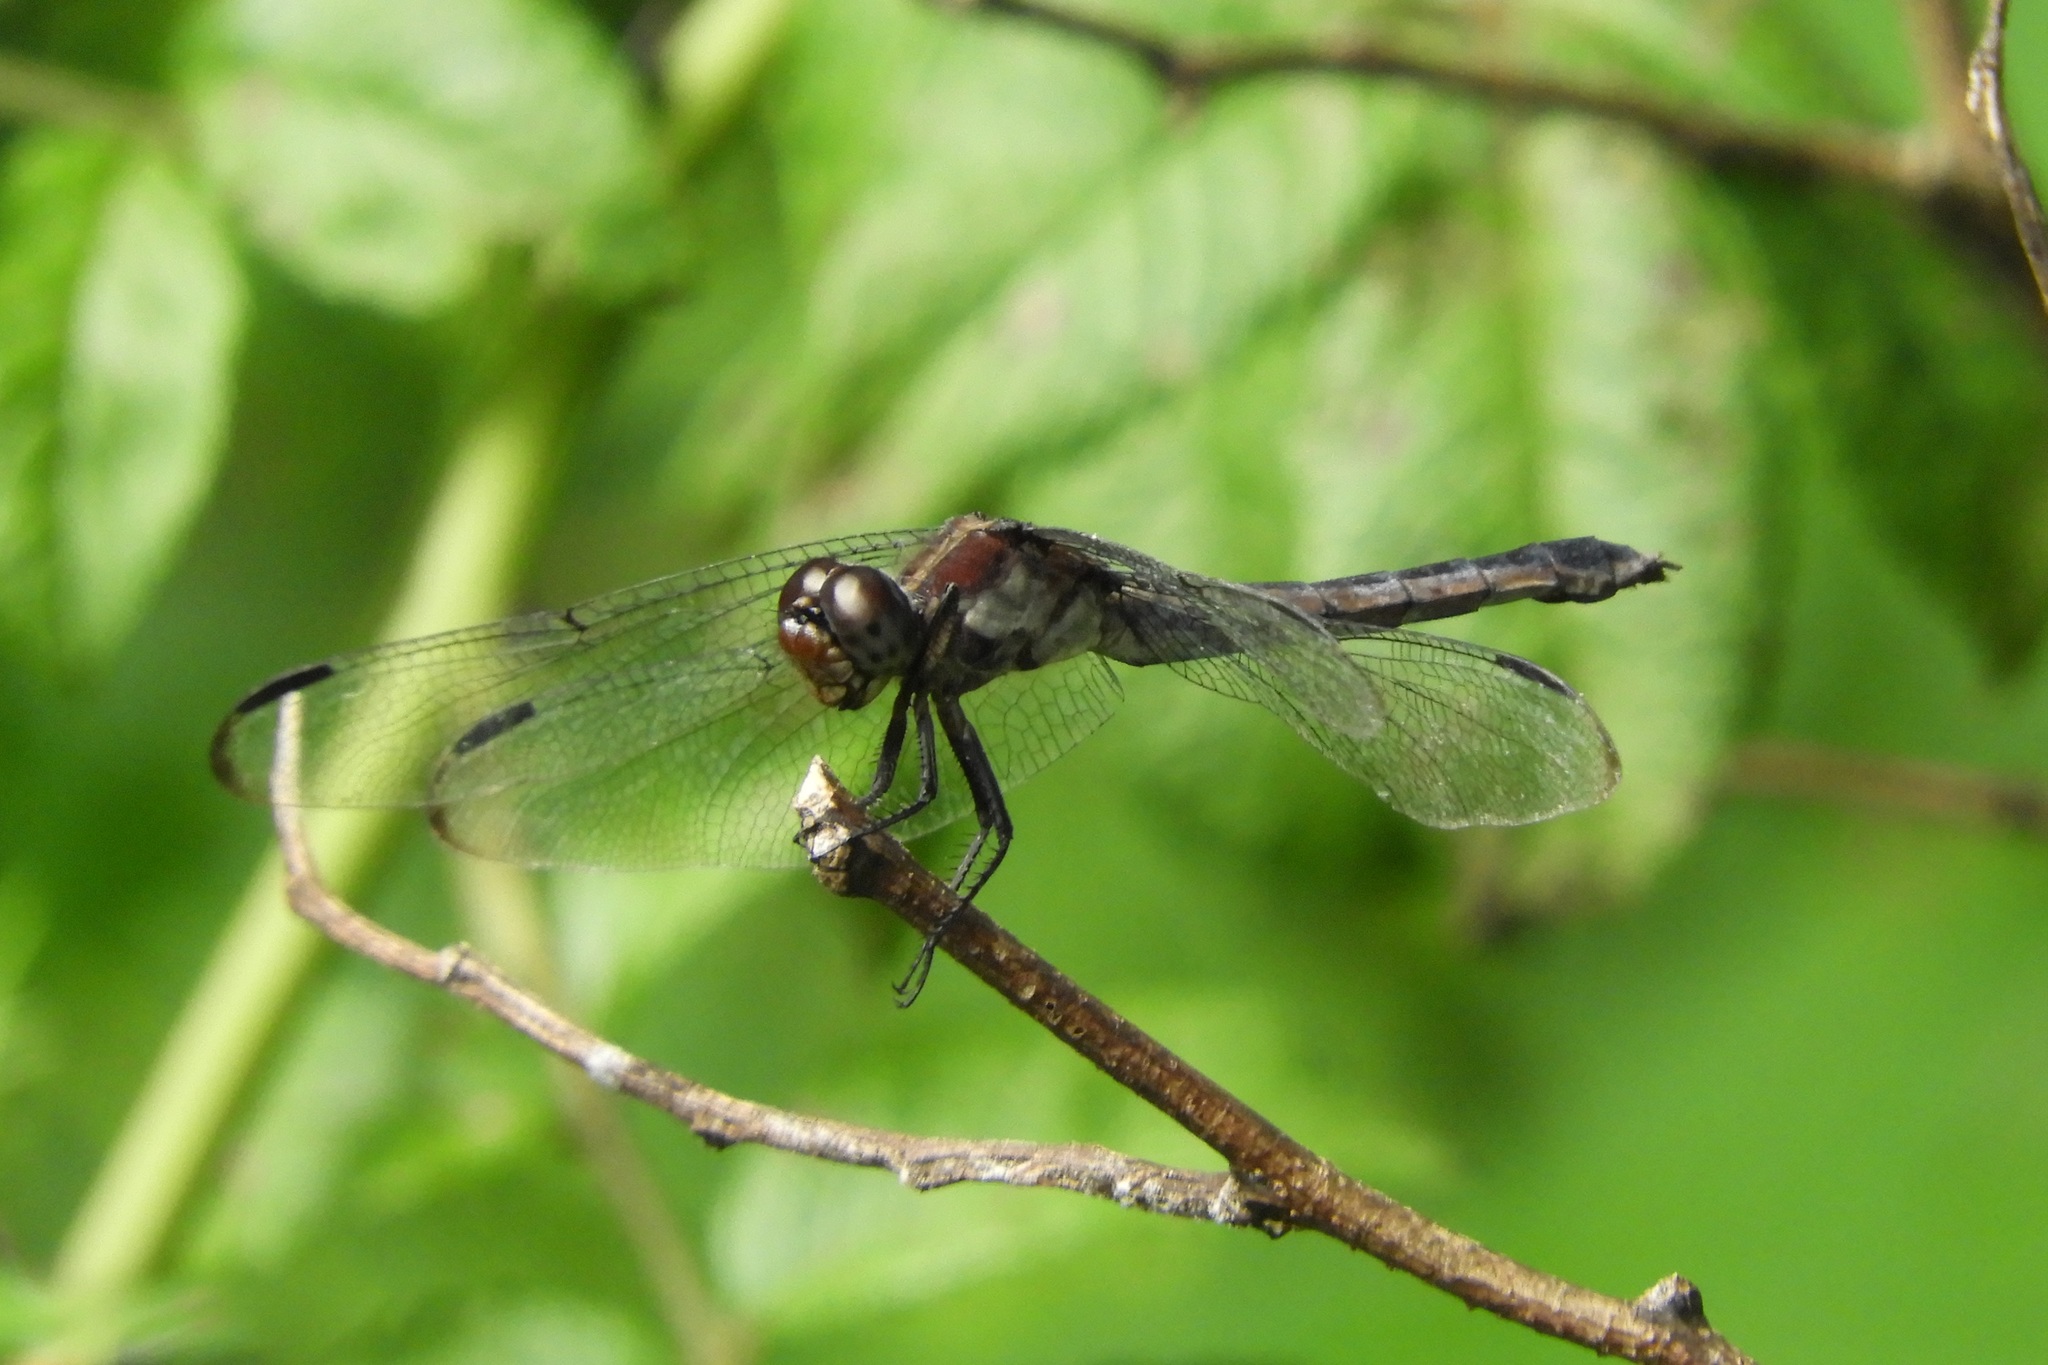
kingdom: Animalia
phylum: Arthropoda
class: Insecta
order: Odonata
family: Libellulidae
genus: Libellula
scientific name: Libellula incesta
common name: Slaty skimmer
